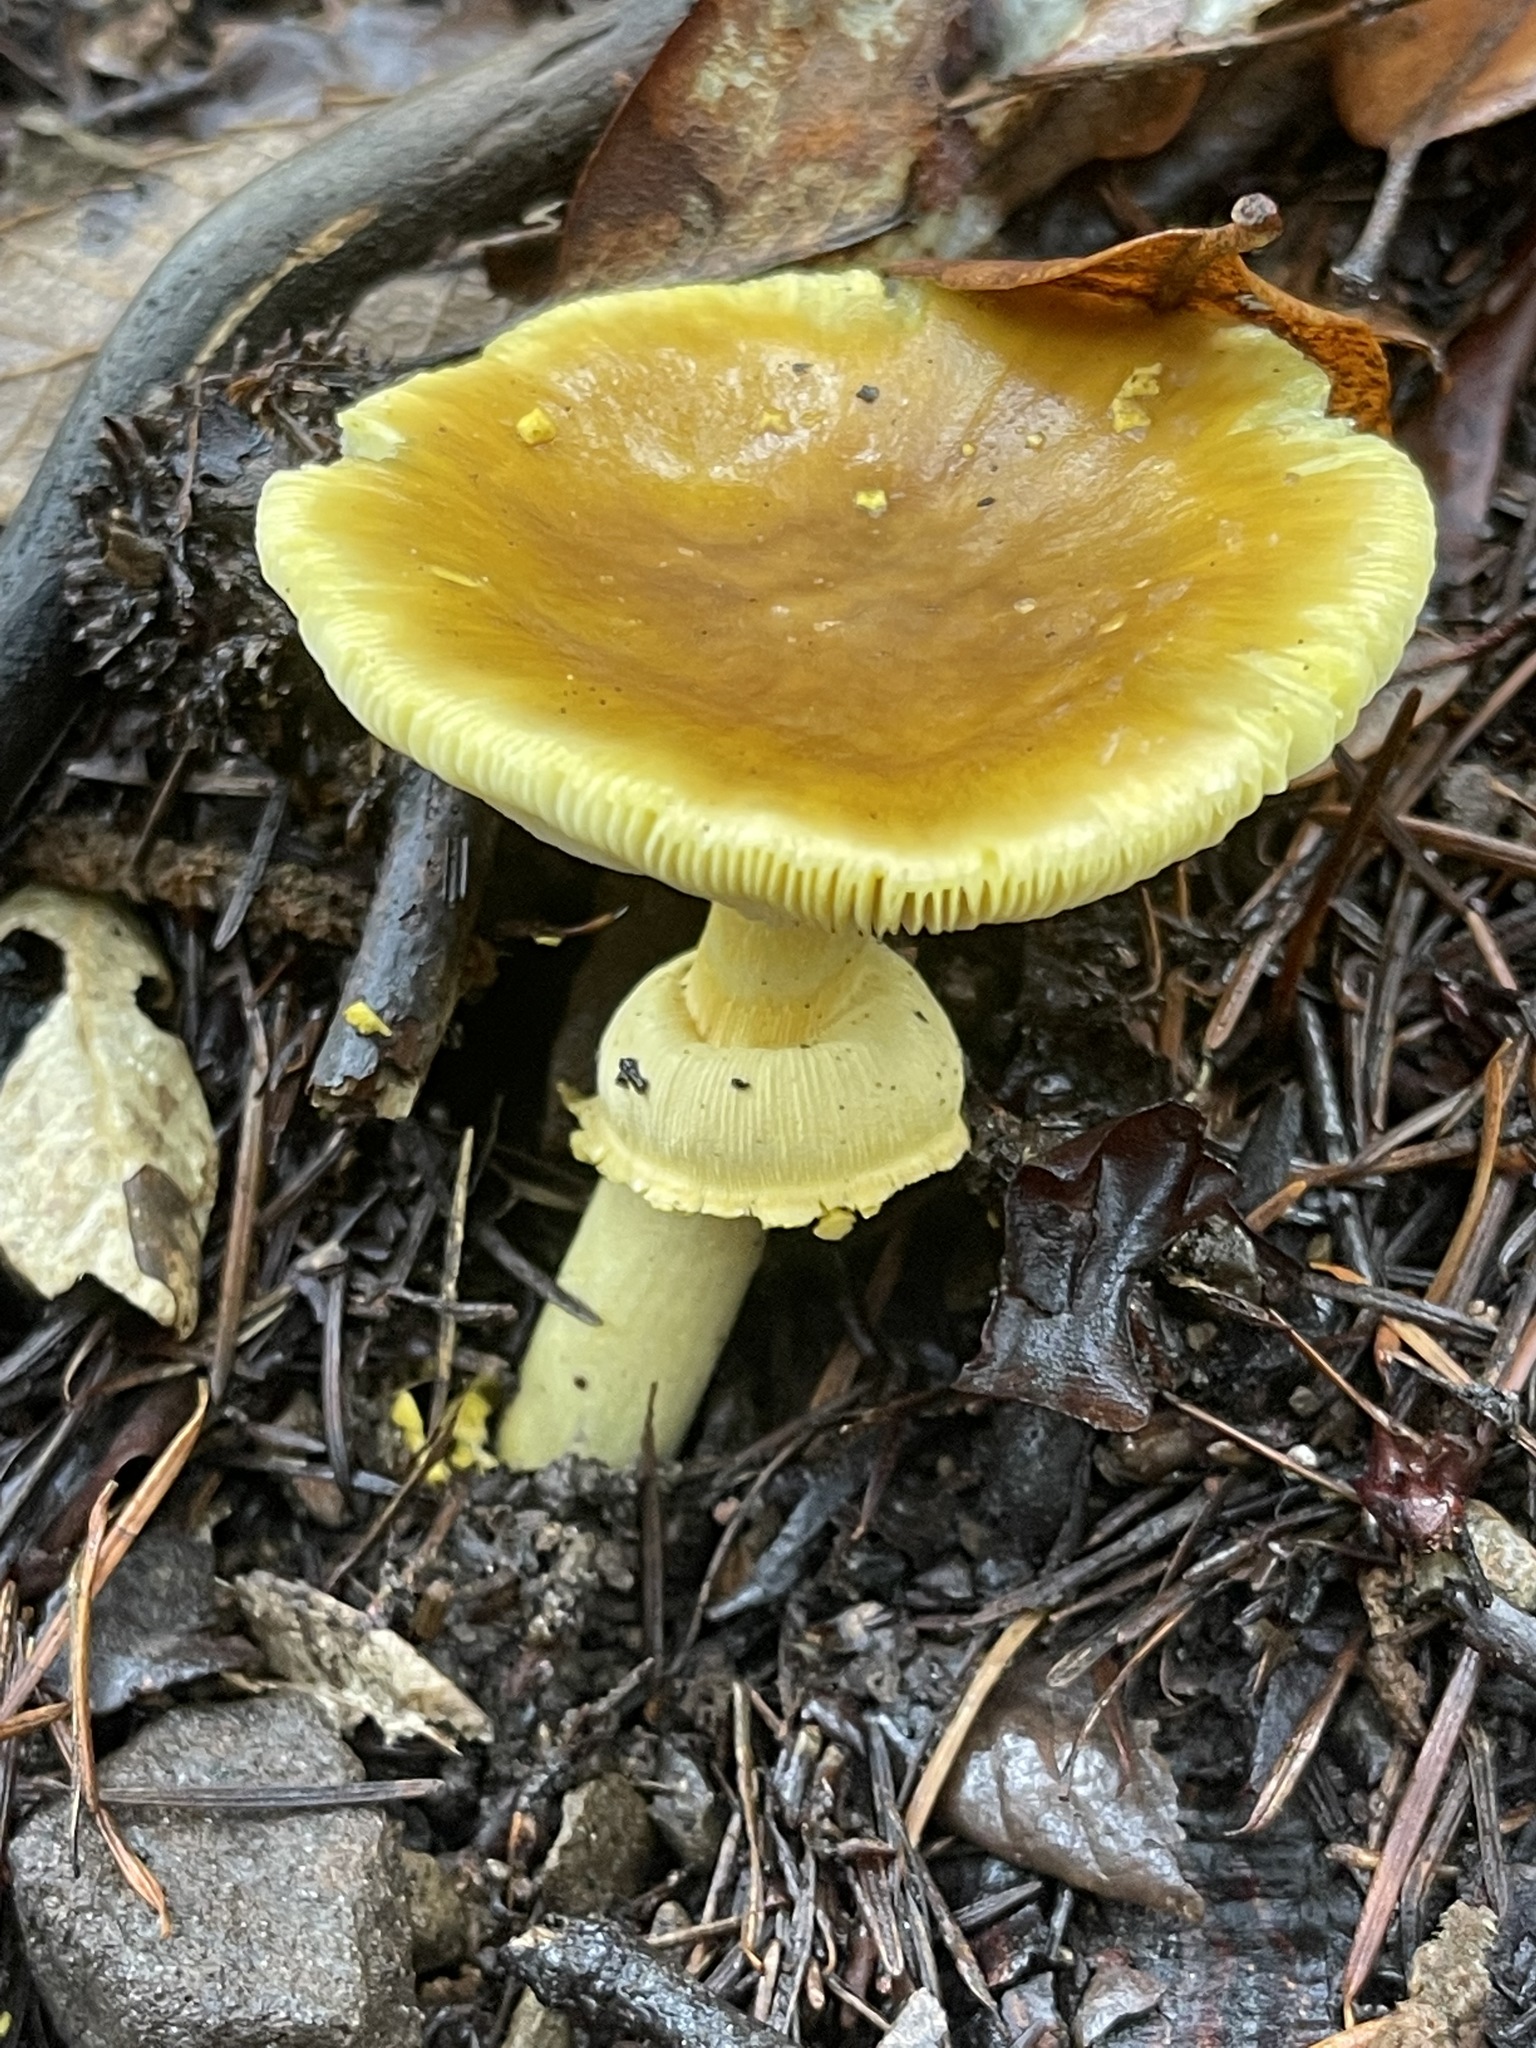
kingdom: Fungi
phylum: Basidiomycota
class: Agaricomycetes
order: Agaricales
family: Amanitaceae
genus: Amanita
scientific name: Amanita augusta
